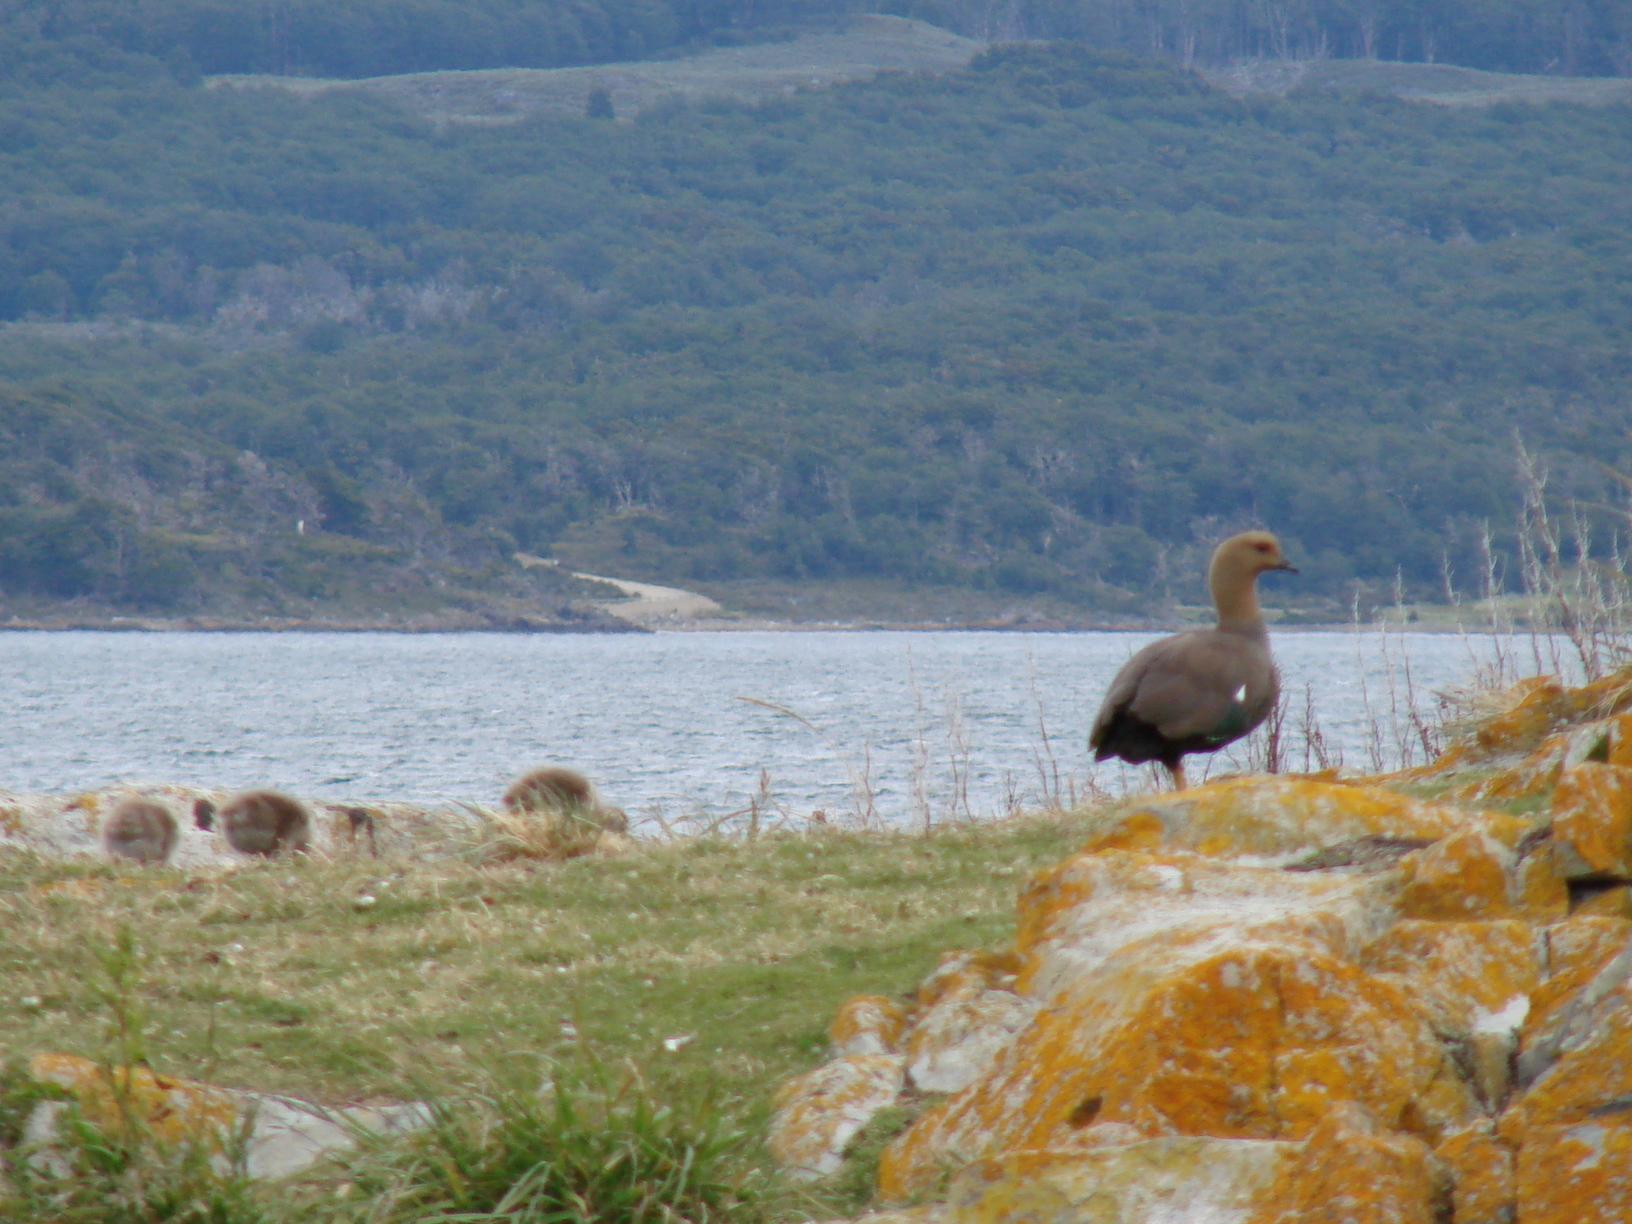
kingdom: Animalia
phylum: Chordata
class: Aves
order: Anseriformes
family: Anatidae
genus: Chloephaga
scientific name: Chloephaga picta
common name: Upland goose
